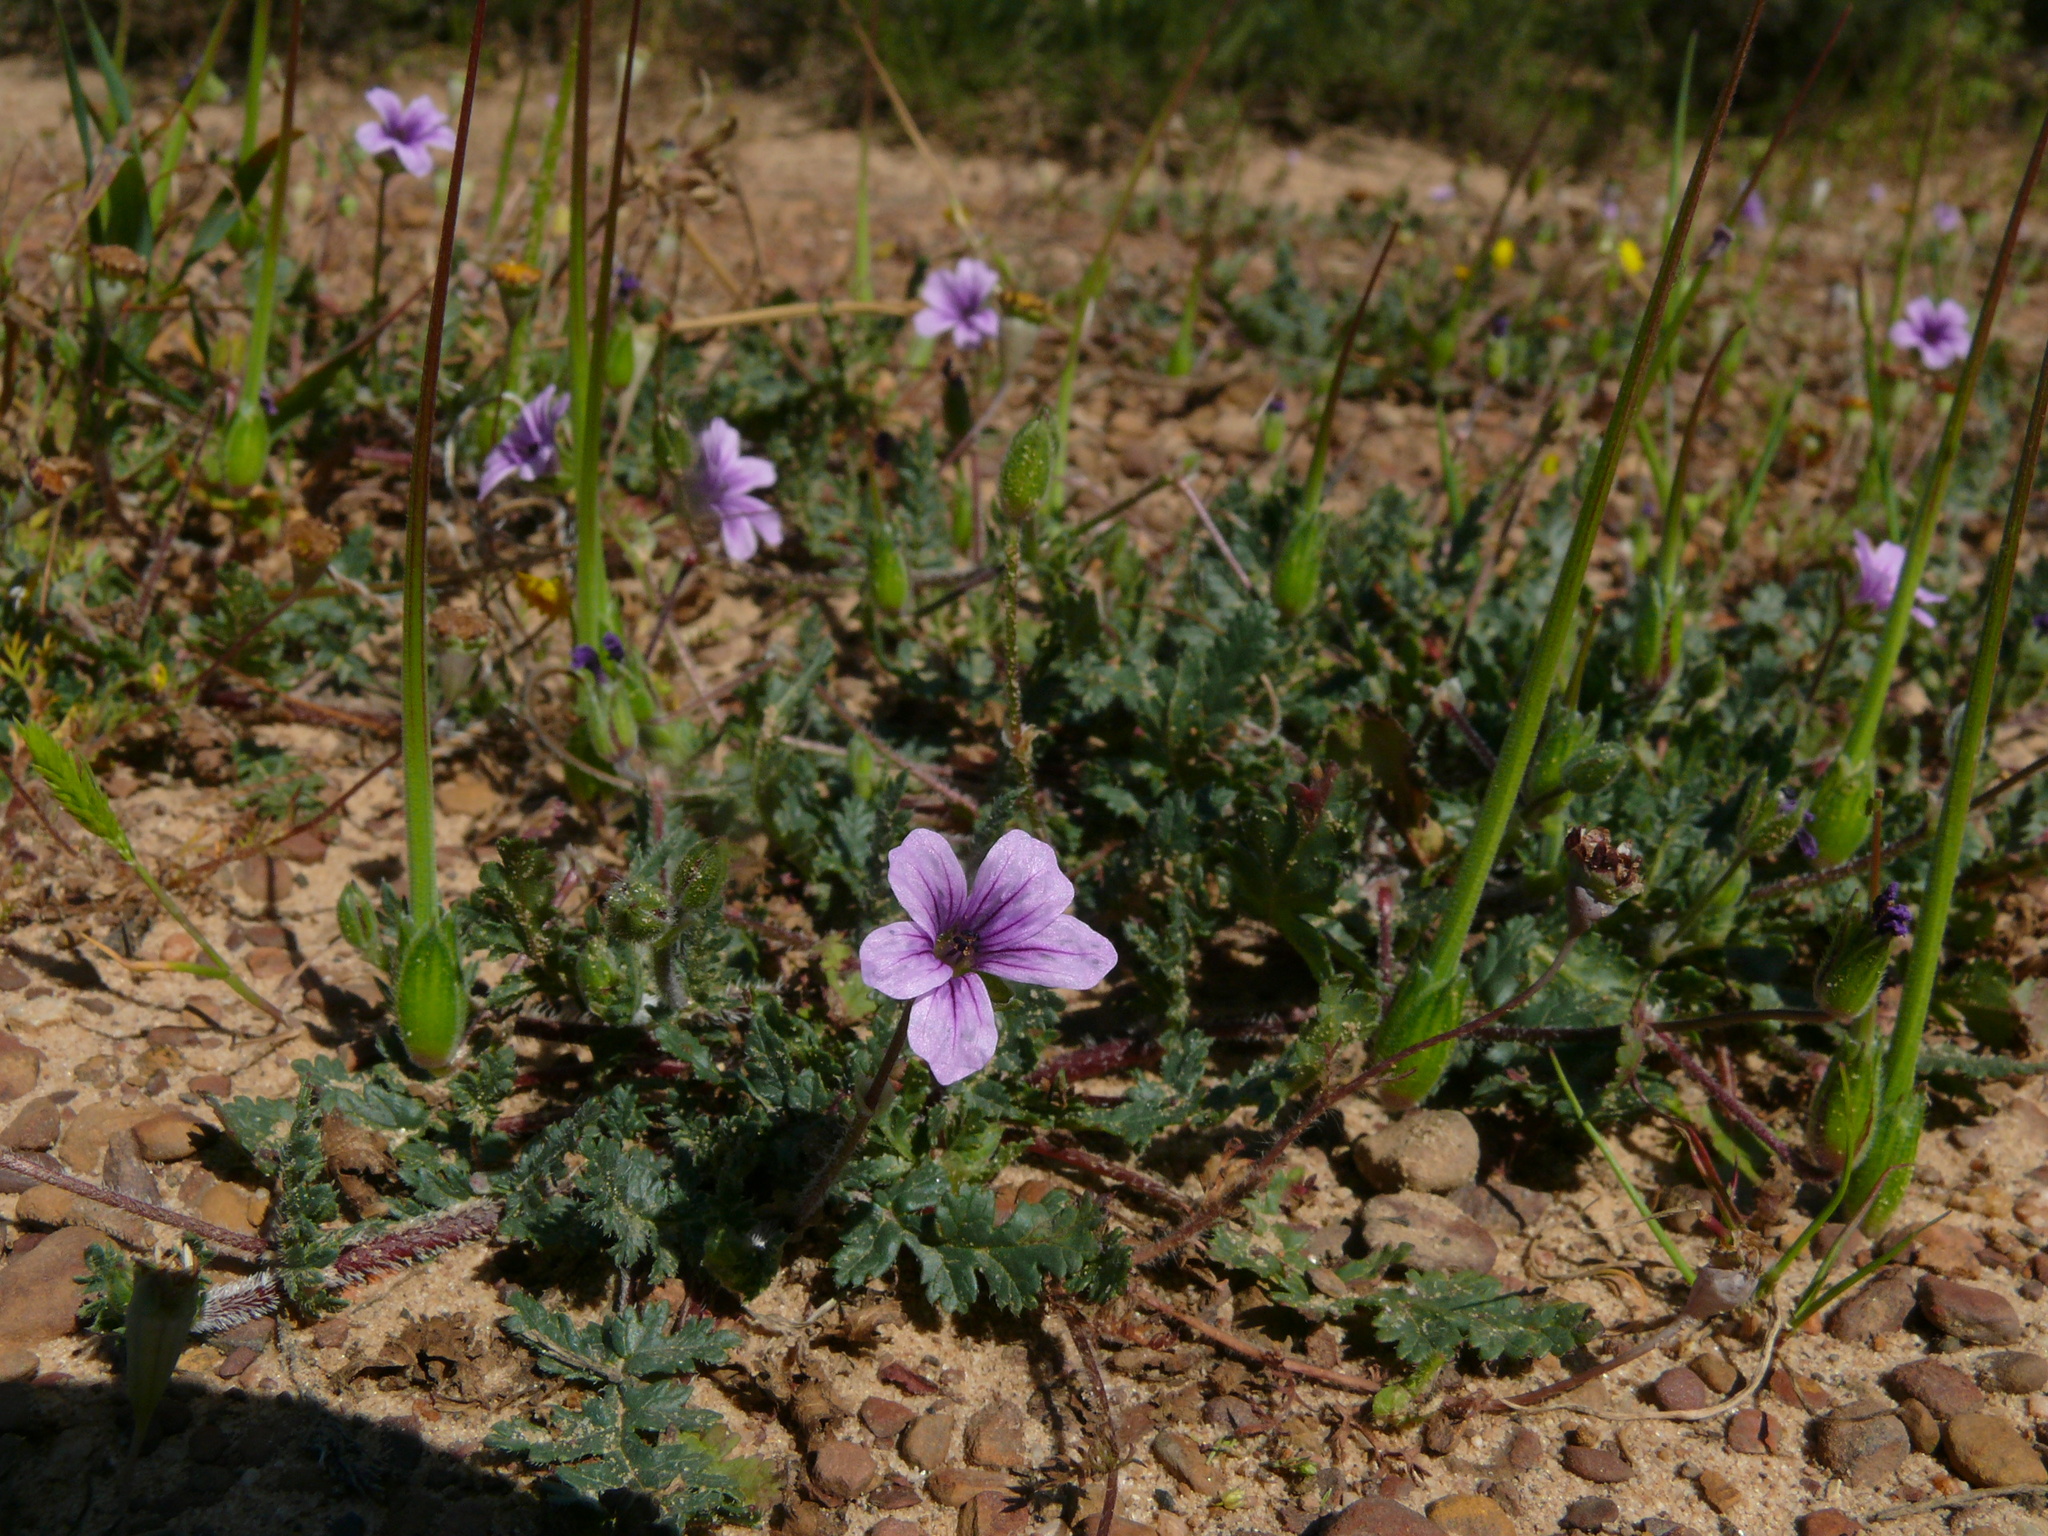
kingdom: Plantae
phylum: Tracheophyta
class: Magnoliopsida
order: Geraniales
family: Geraniaceae
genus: Erodium
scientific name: Erodium botrys
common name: Mediterranean stork's-bill
